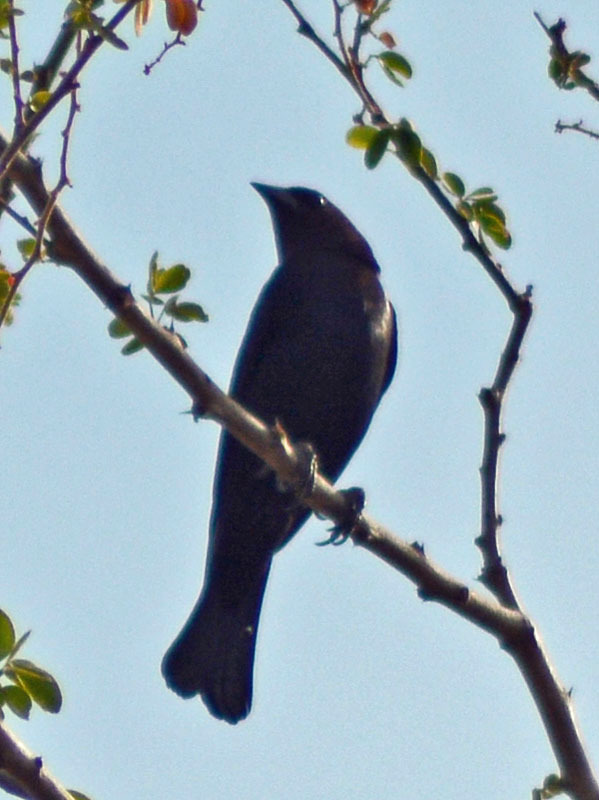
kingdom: Animalia
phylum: Chordata
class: Aves
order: Passeriformes
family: Icteridae
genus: Molothrus
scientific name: Molothrus ater
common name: Brown-headed cowbird
